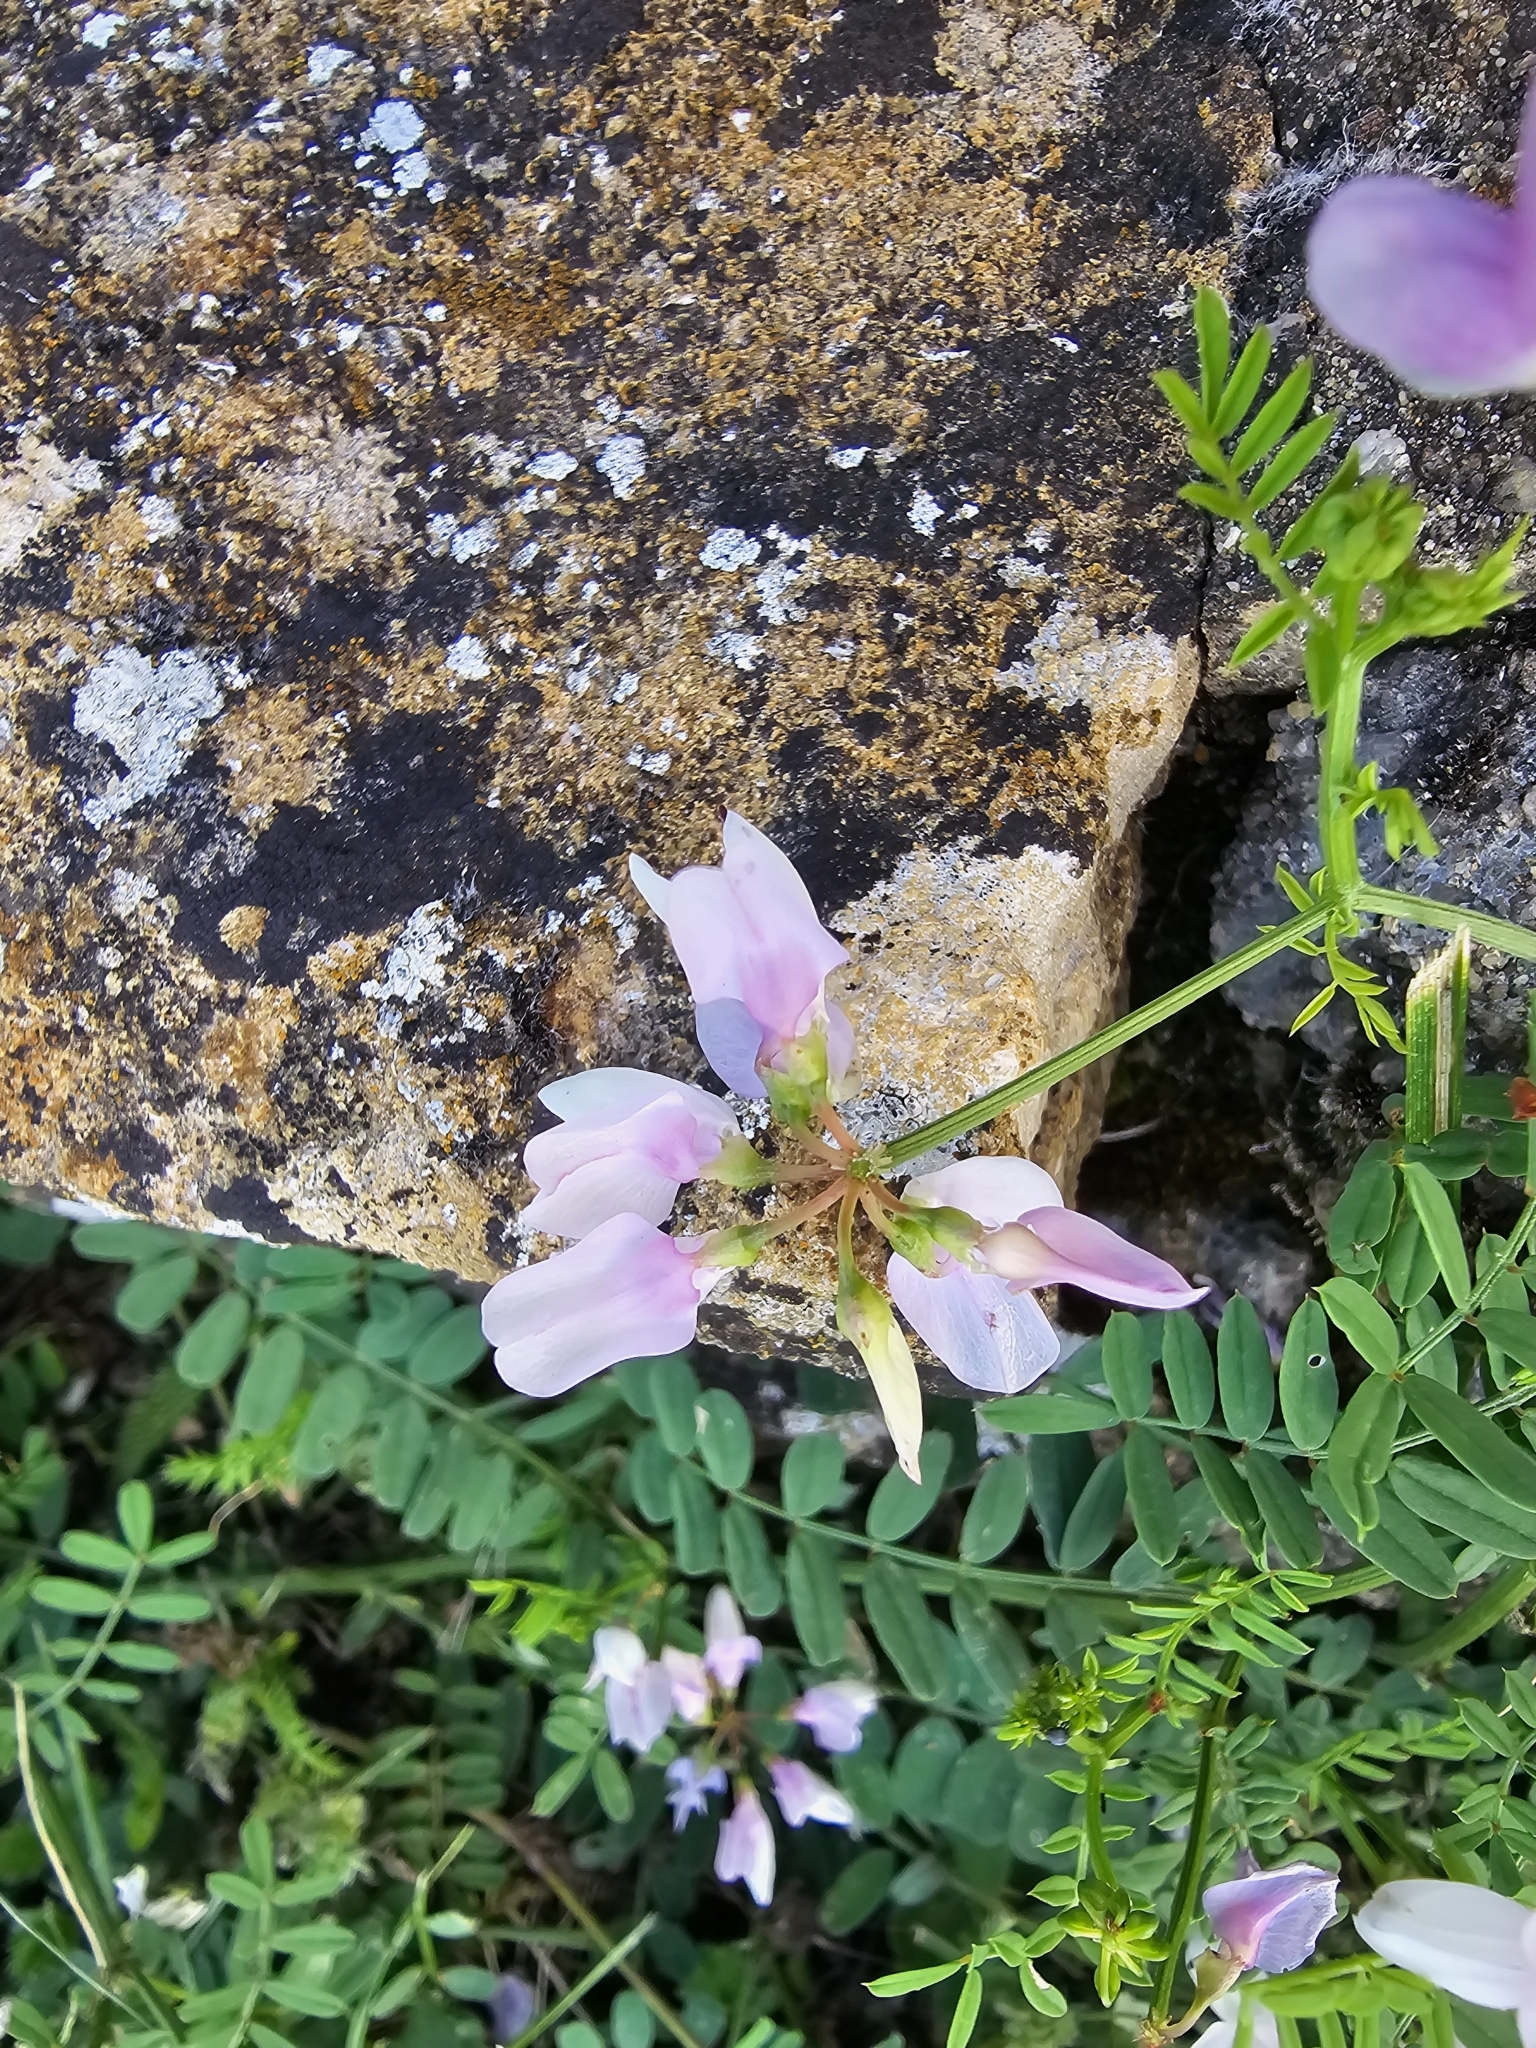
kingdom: Plantae
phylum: Tracheophyta
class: Magnoliopsida
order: Fabales
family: Fabaceae
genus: Coronilla
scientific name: Coronilla varia
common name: Crownvetch
